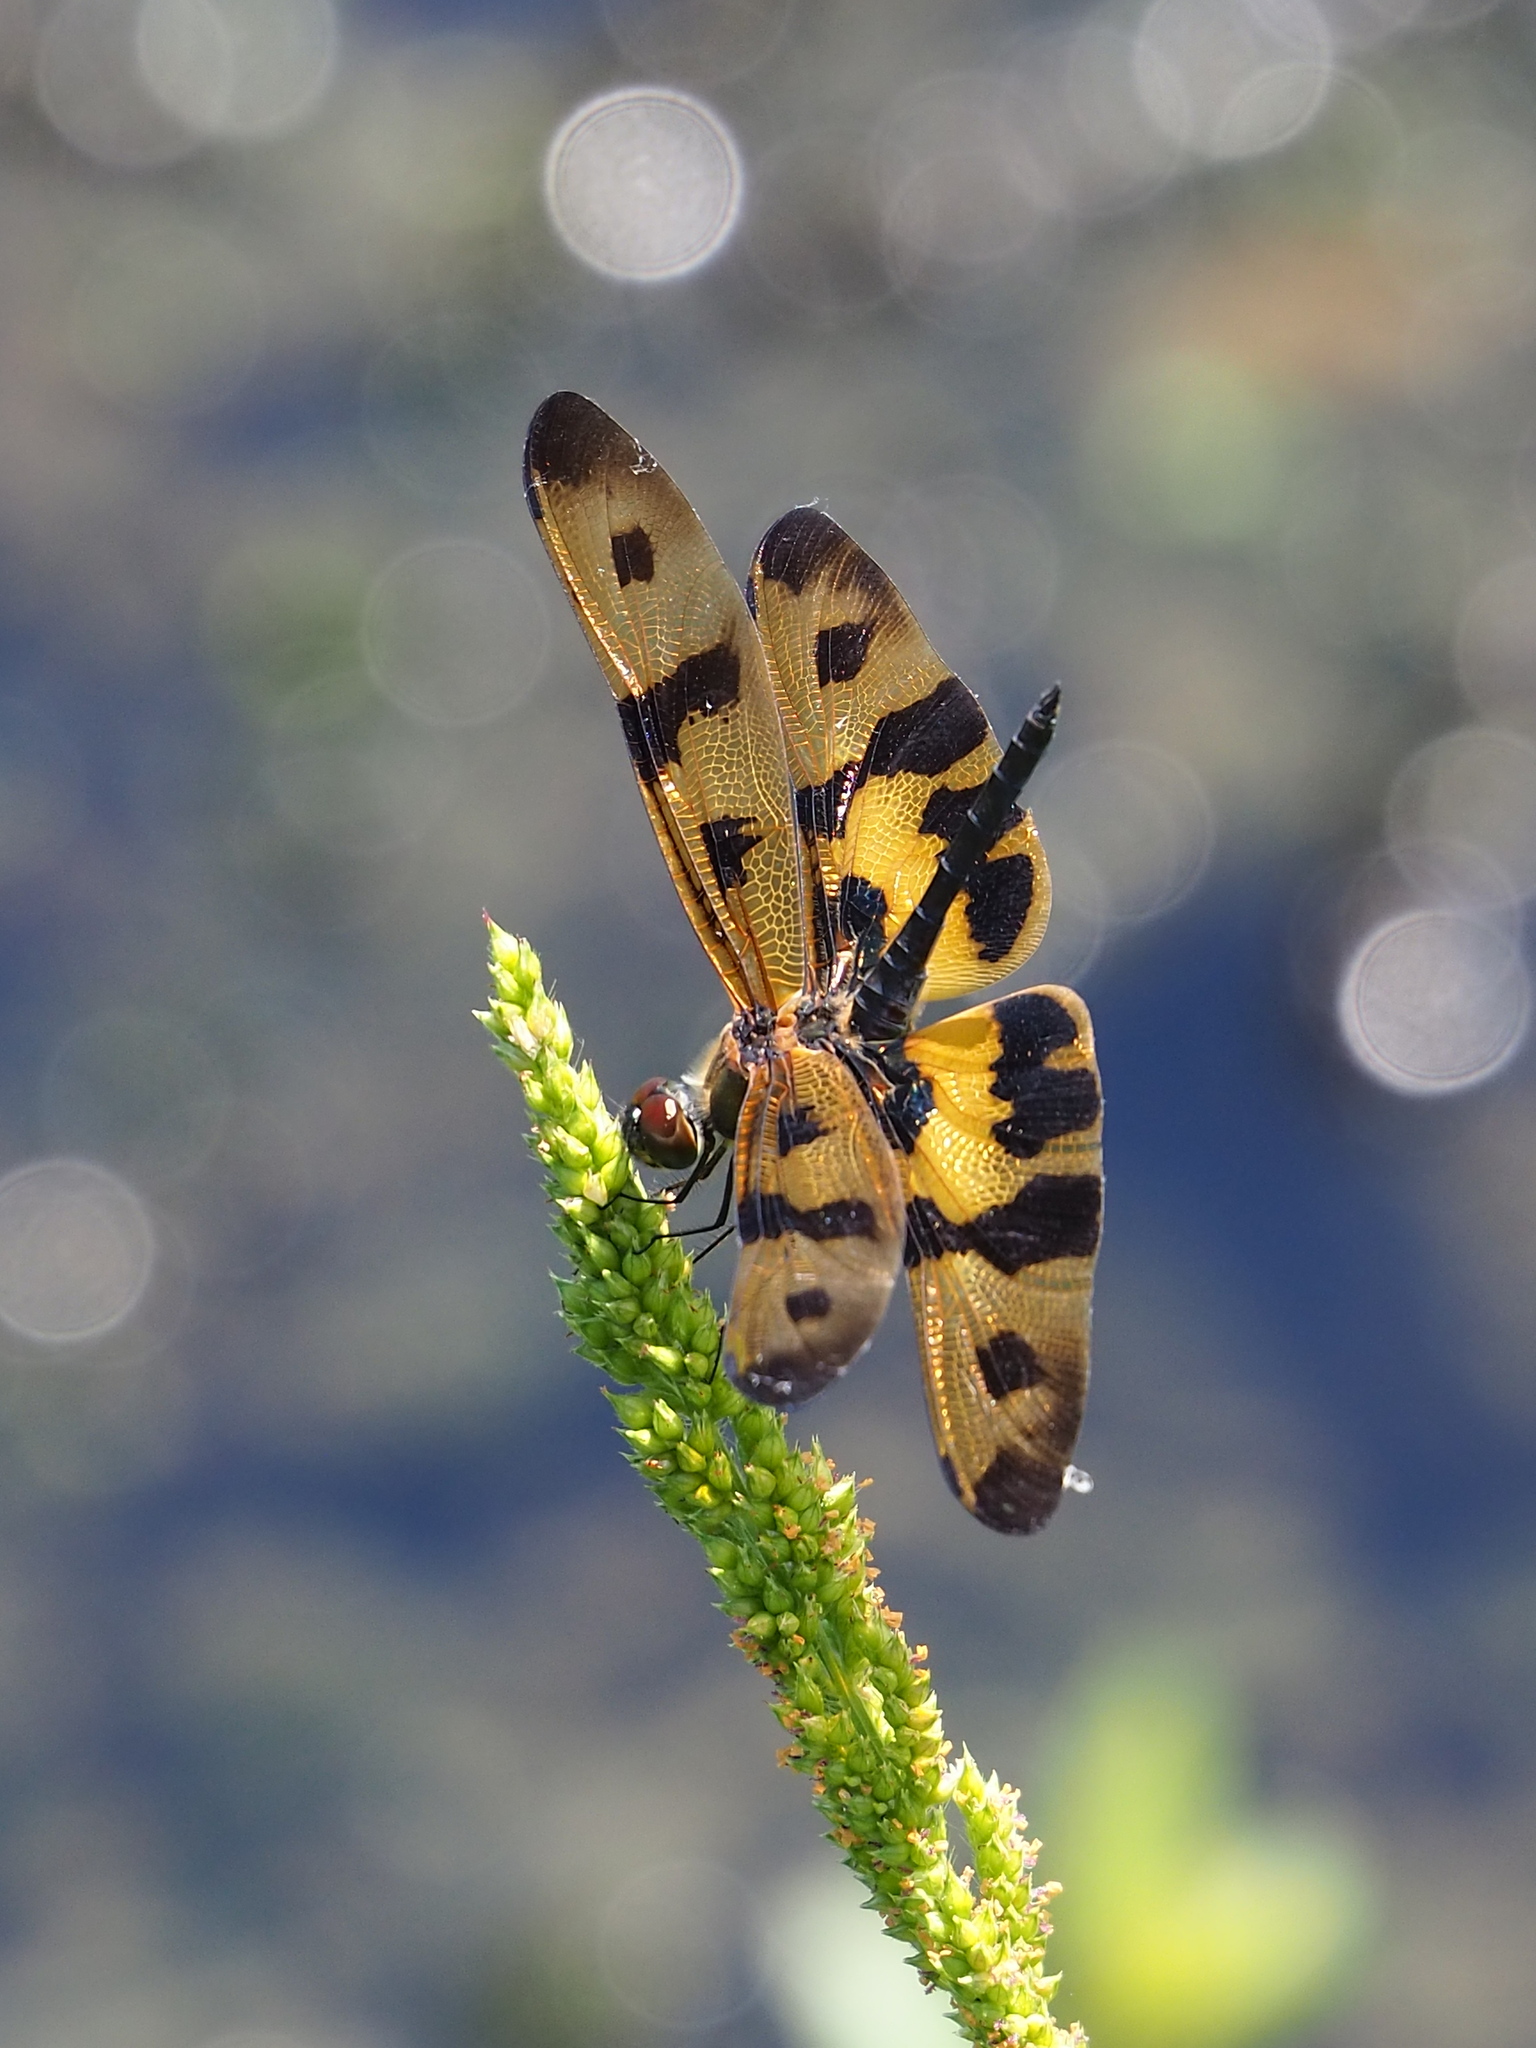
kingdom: Animalia
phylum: Arthropoda
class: Insecta
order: Odonata
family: Libellulidae
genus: Rhyothemis
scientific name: Rhyothemis variegata
